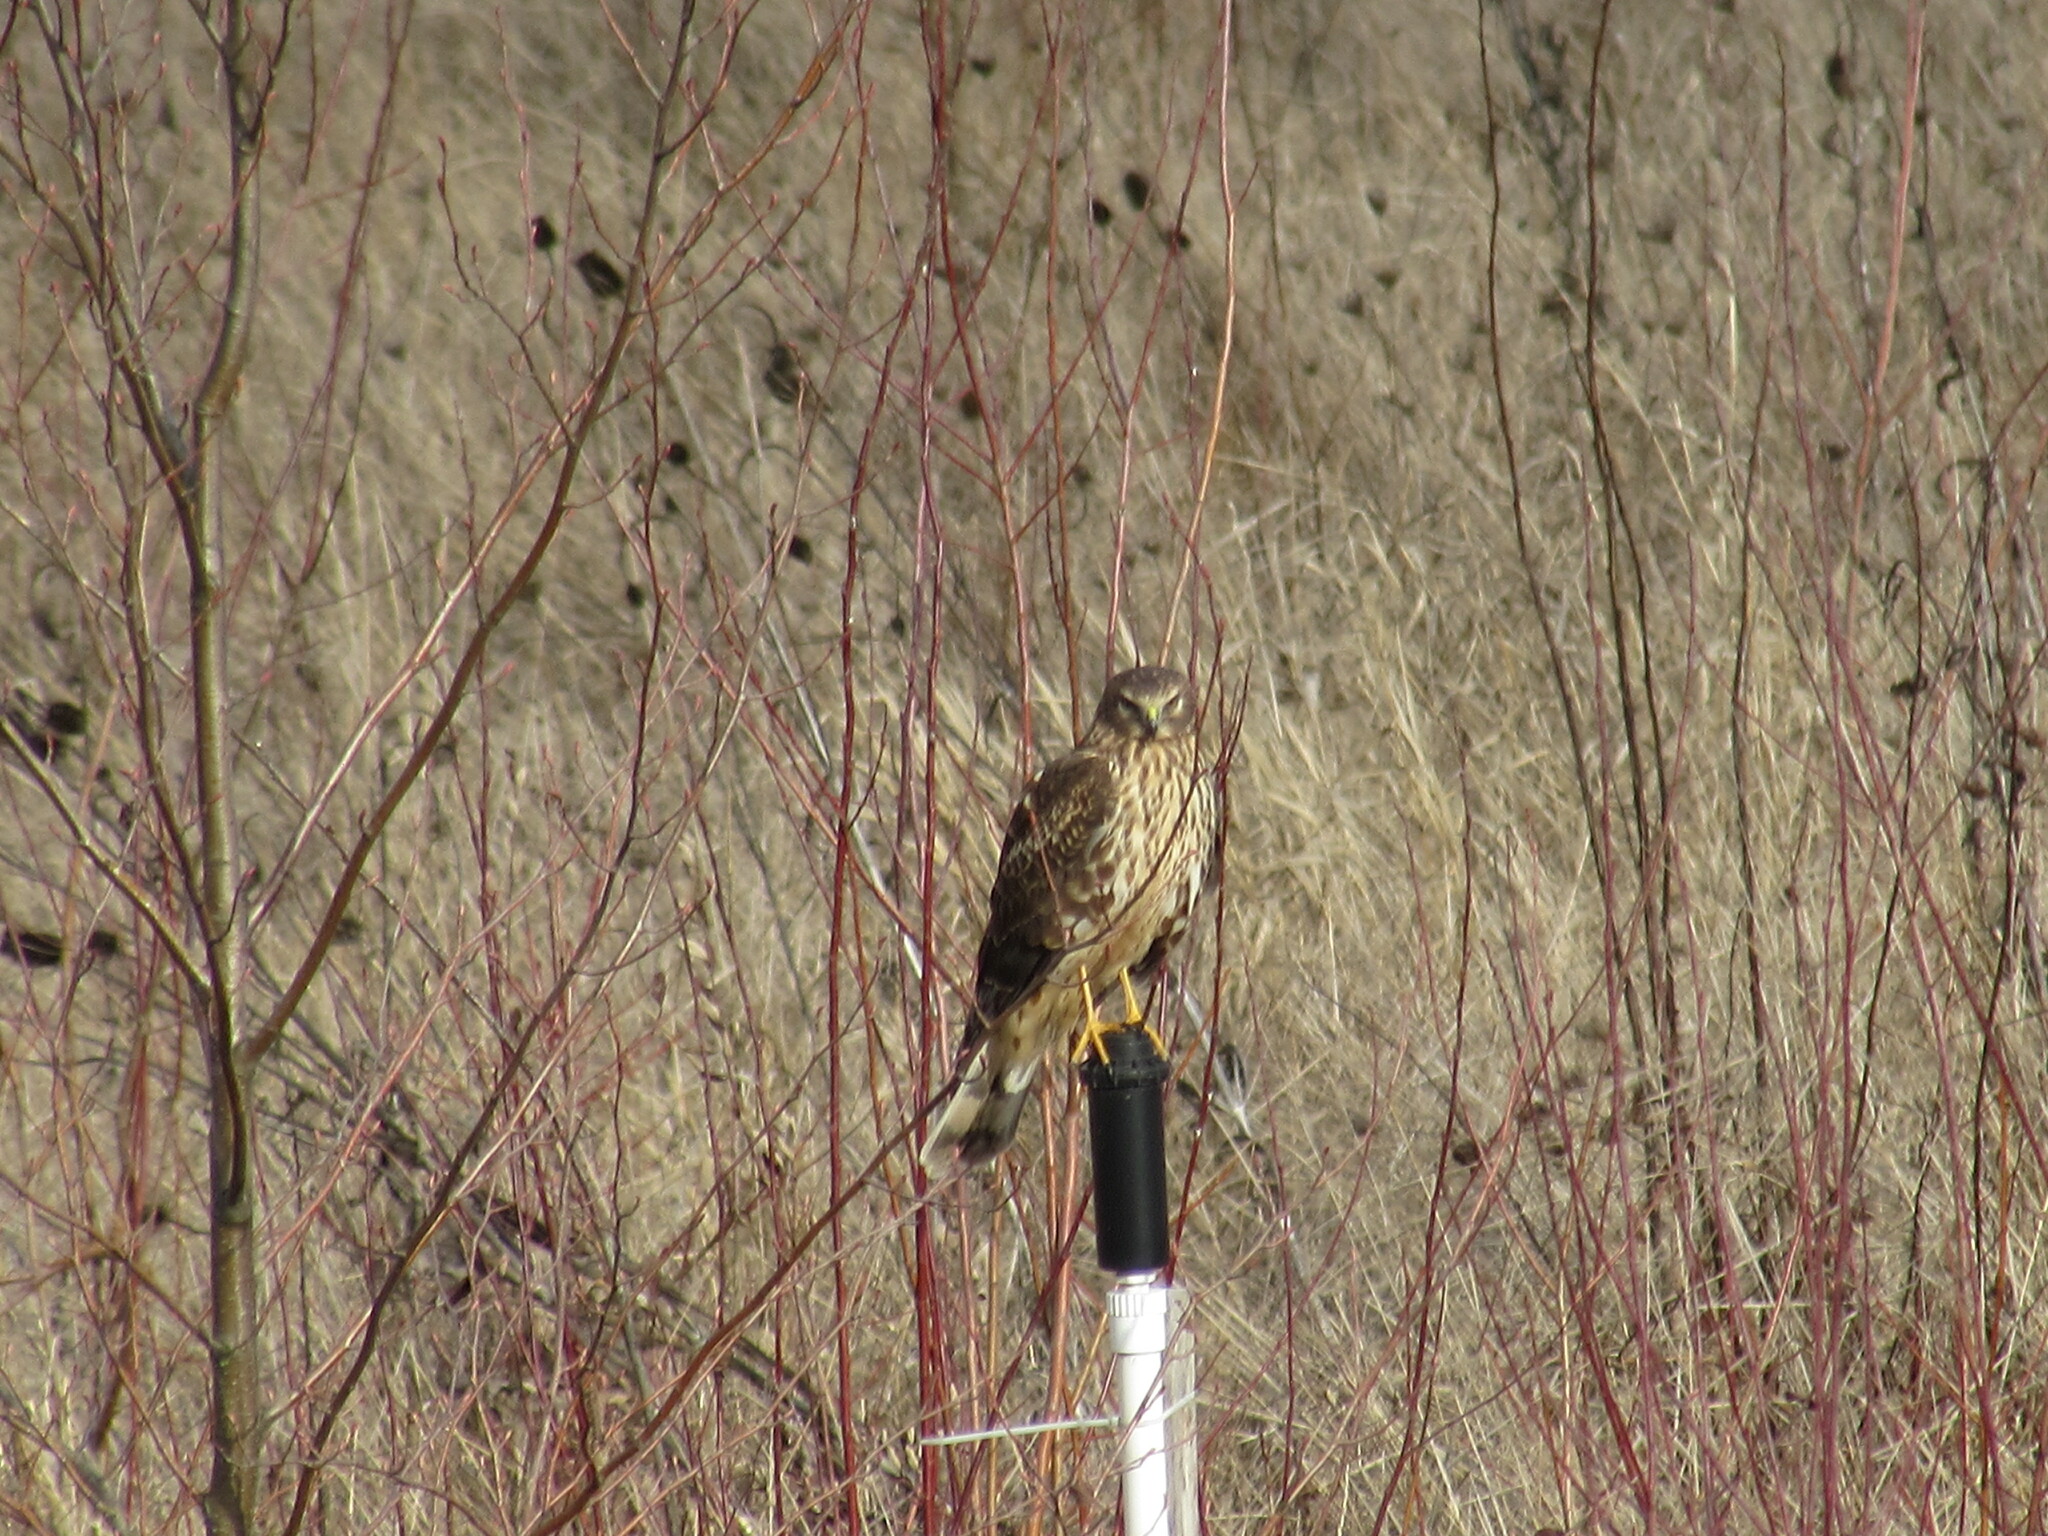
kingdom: Animalia
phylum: Chordata
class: Aves
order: Accipitriformes
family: Accipitridae
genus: Circus
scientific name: Circus cyaneus
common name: Hen harrier
